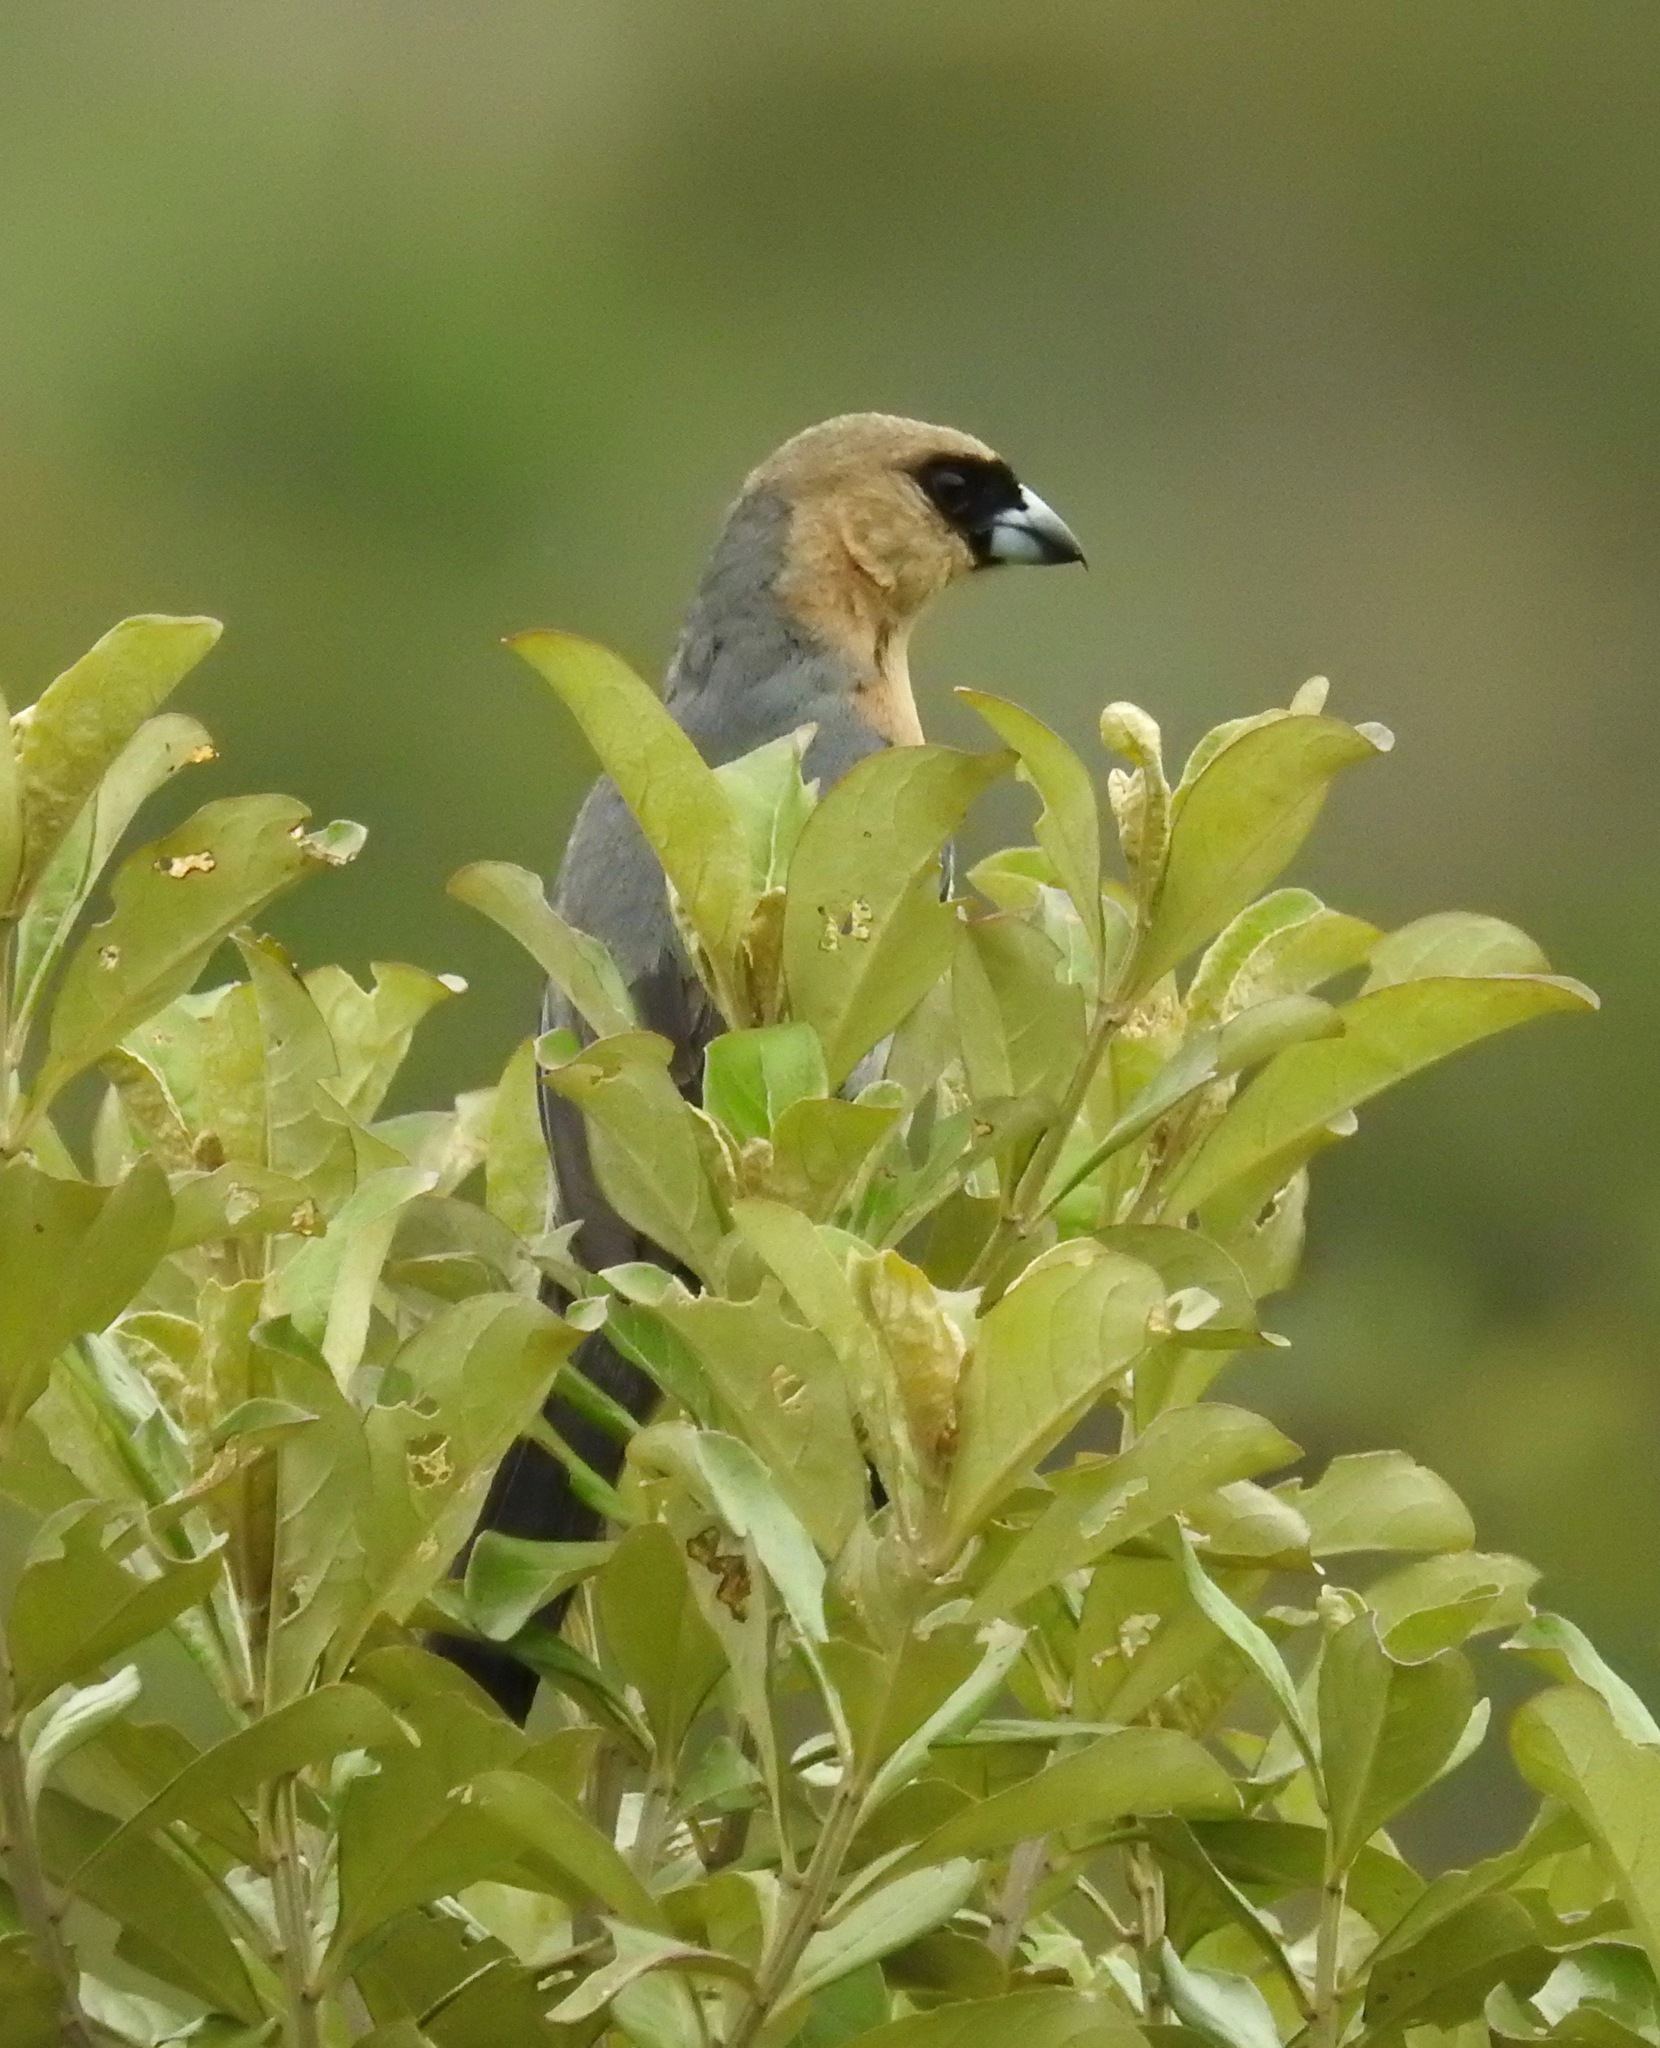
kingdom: Animalia
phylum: Chordata
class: Aves
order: Passeriformes
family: Thraupidae
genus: Schistochlamys
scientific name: Schistochlamys ruficapillus
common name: Cinnamon tanager
